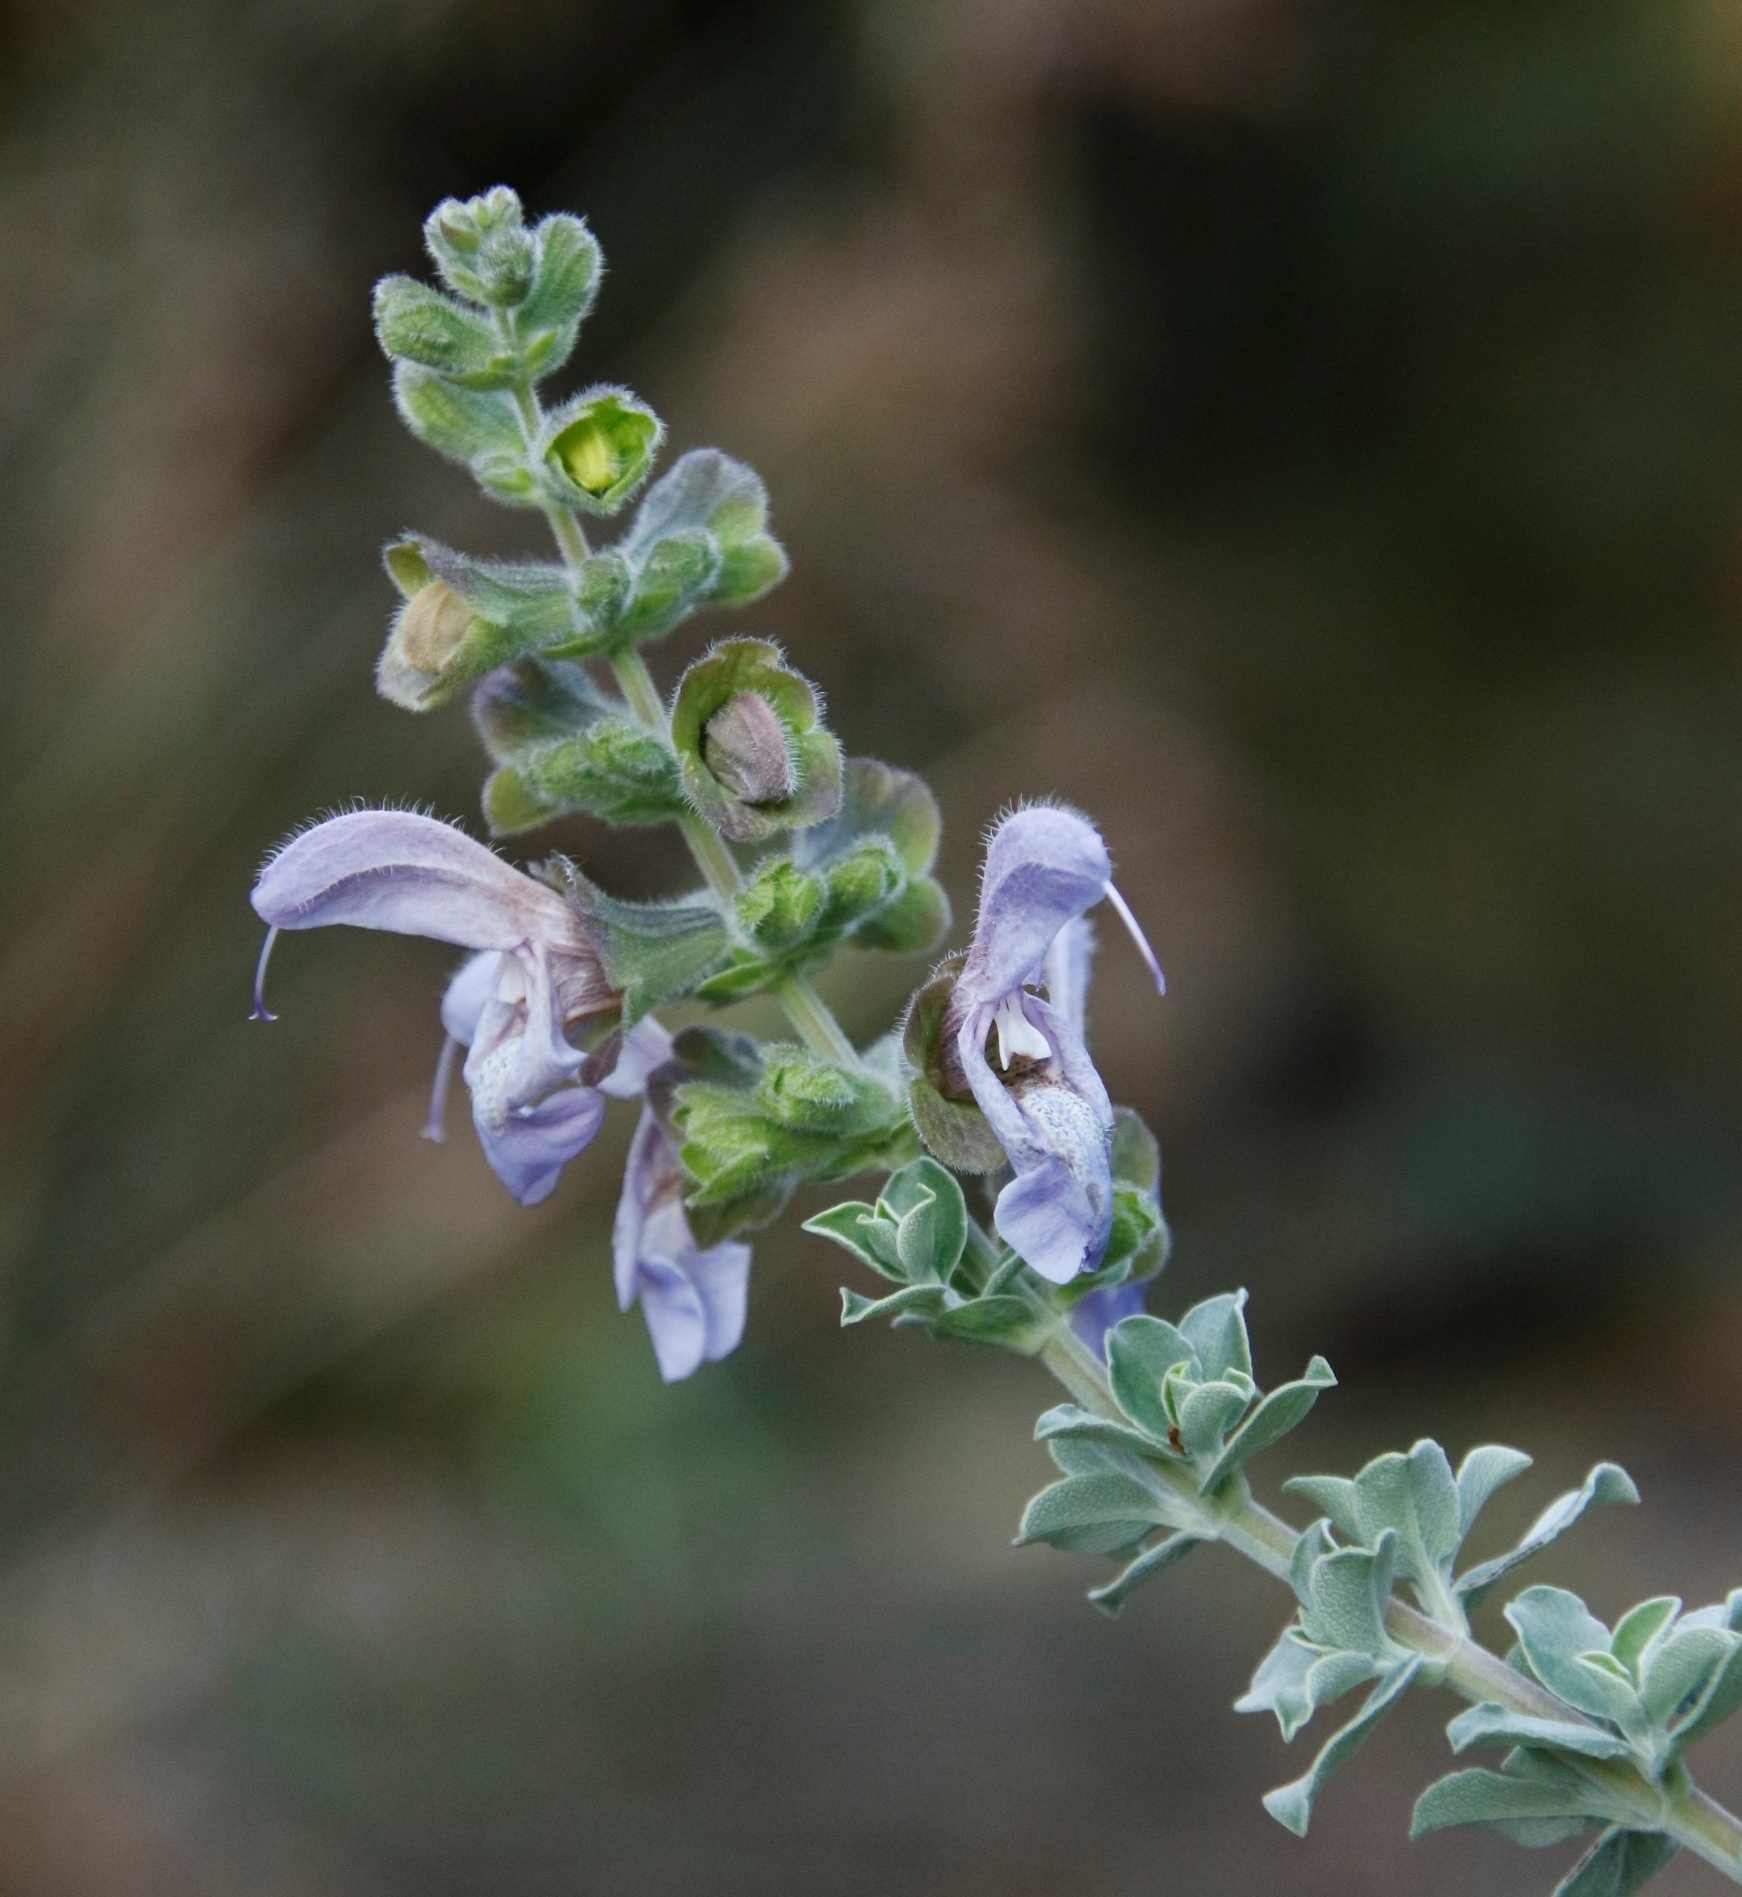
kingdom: Plantae
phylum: Tracheophyta
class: Magnoliopsida
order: Lamiales
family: Lamiaceae
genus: Salvia
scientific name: Salvia africana
